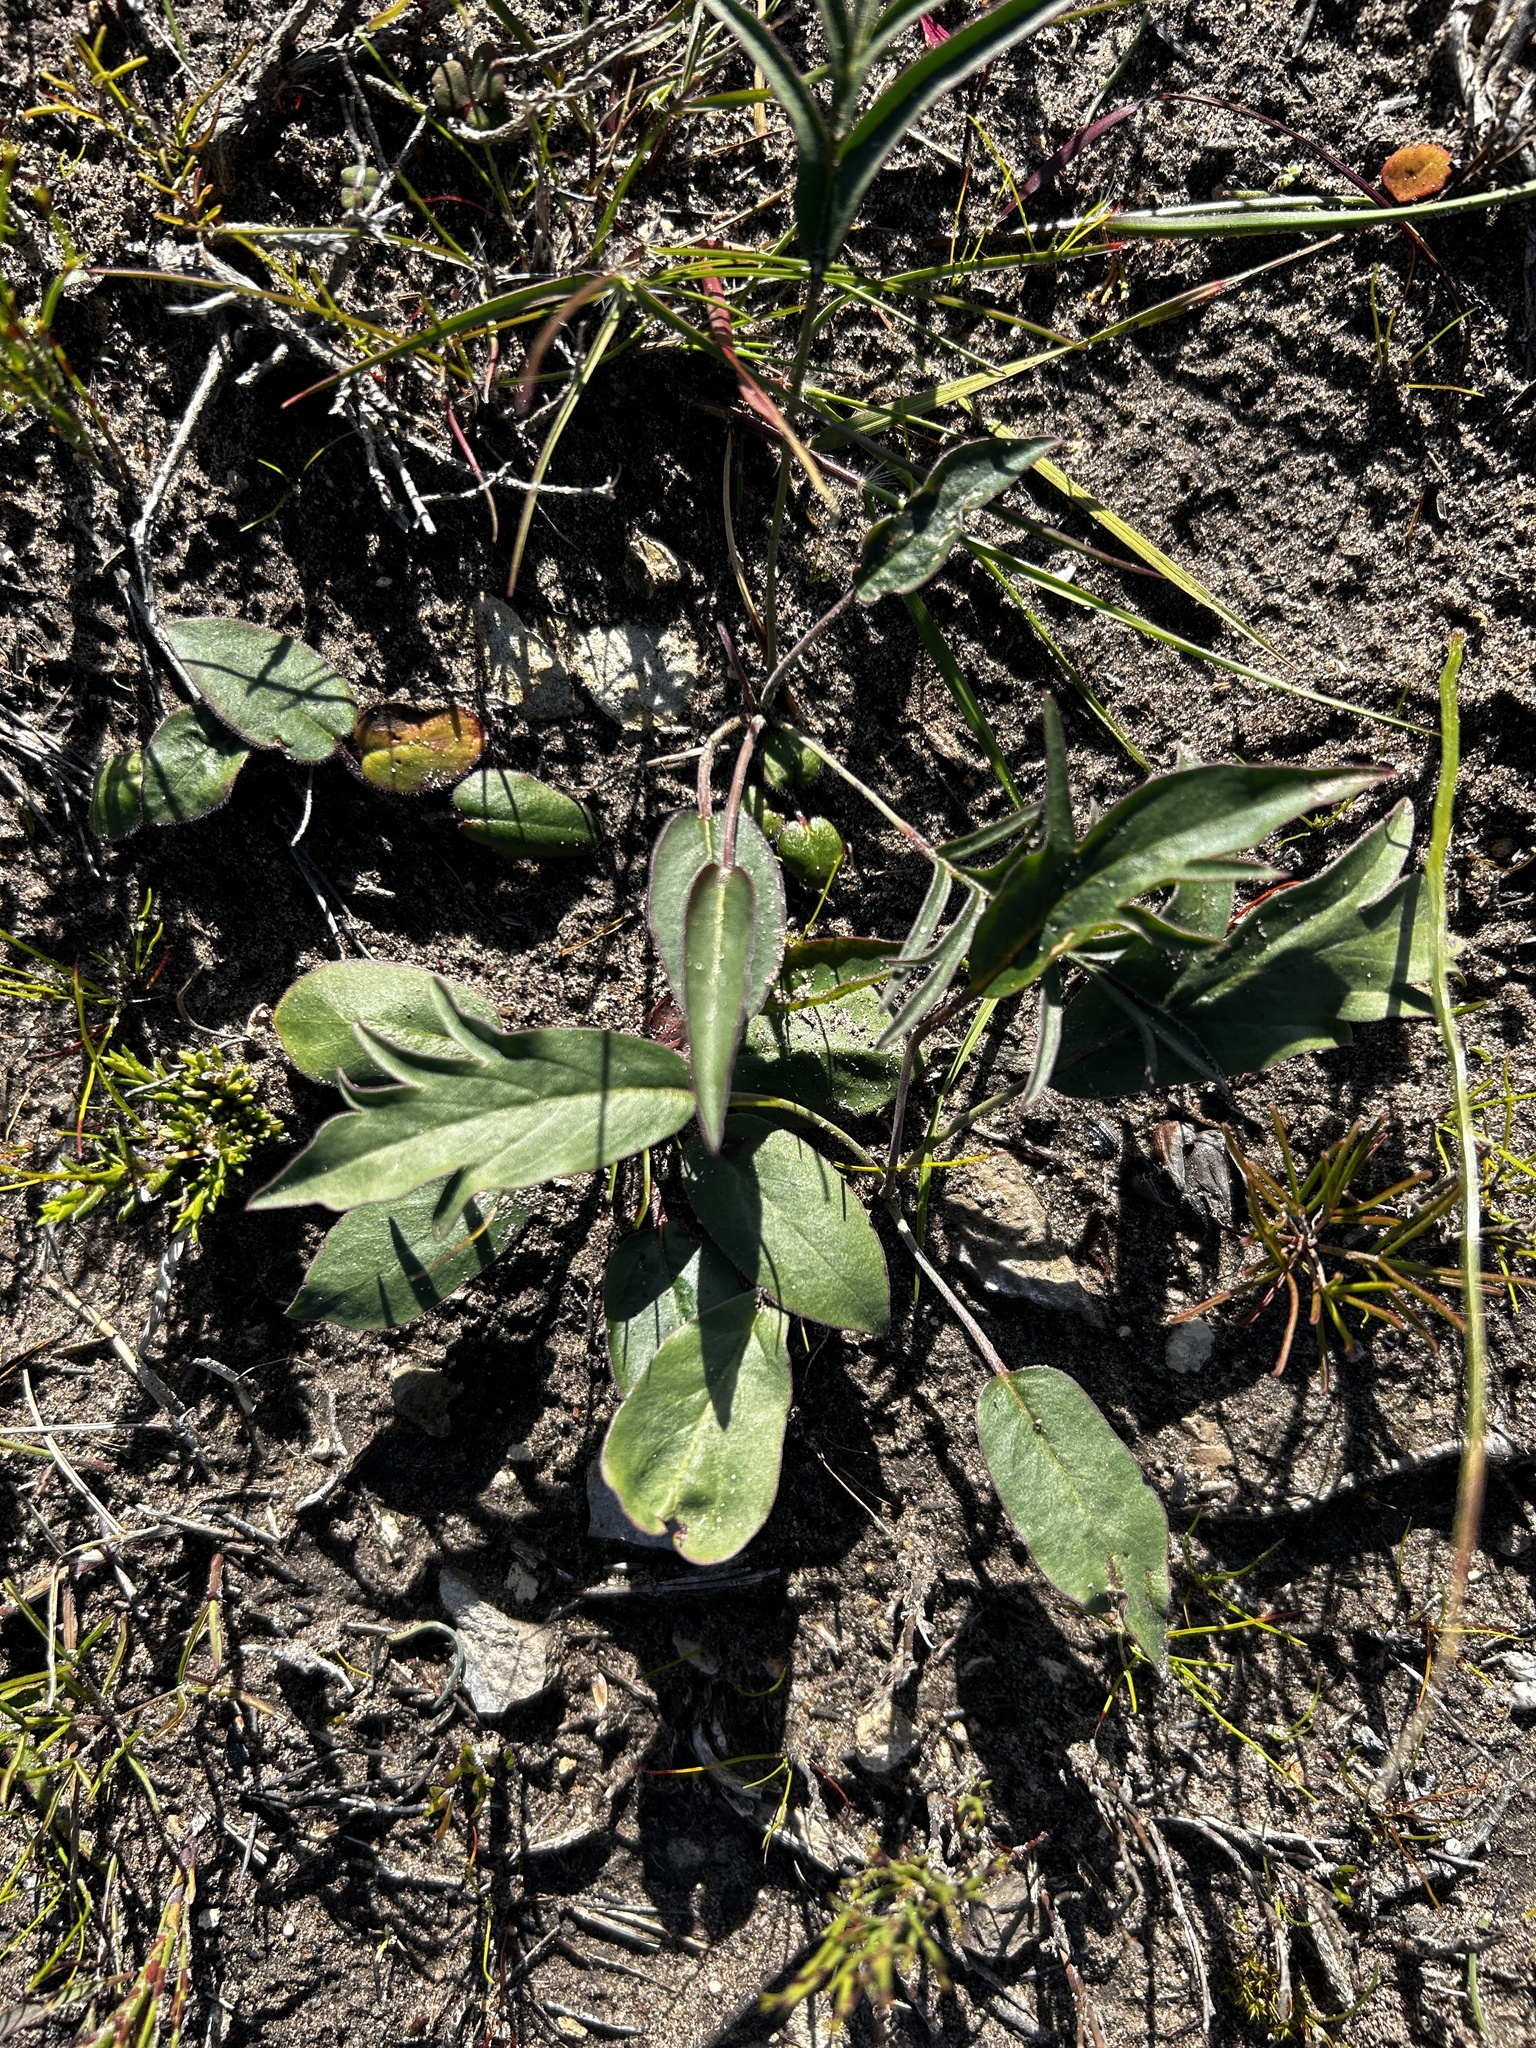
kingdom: Plantae
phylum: Tracheophyta
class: Magnoliopsida
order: Geraniales
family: Geraniaceae
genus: Pelargonium
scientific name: Pelargonium dipetalum
